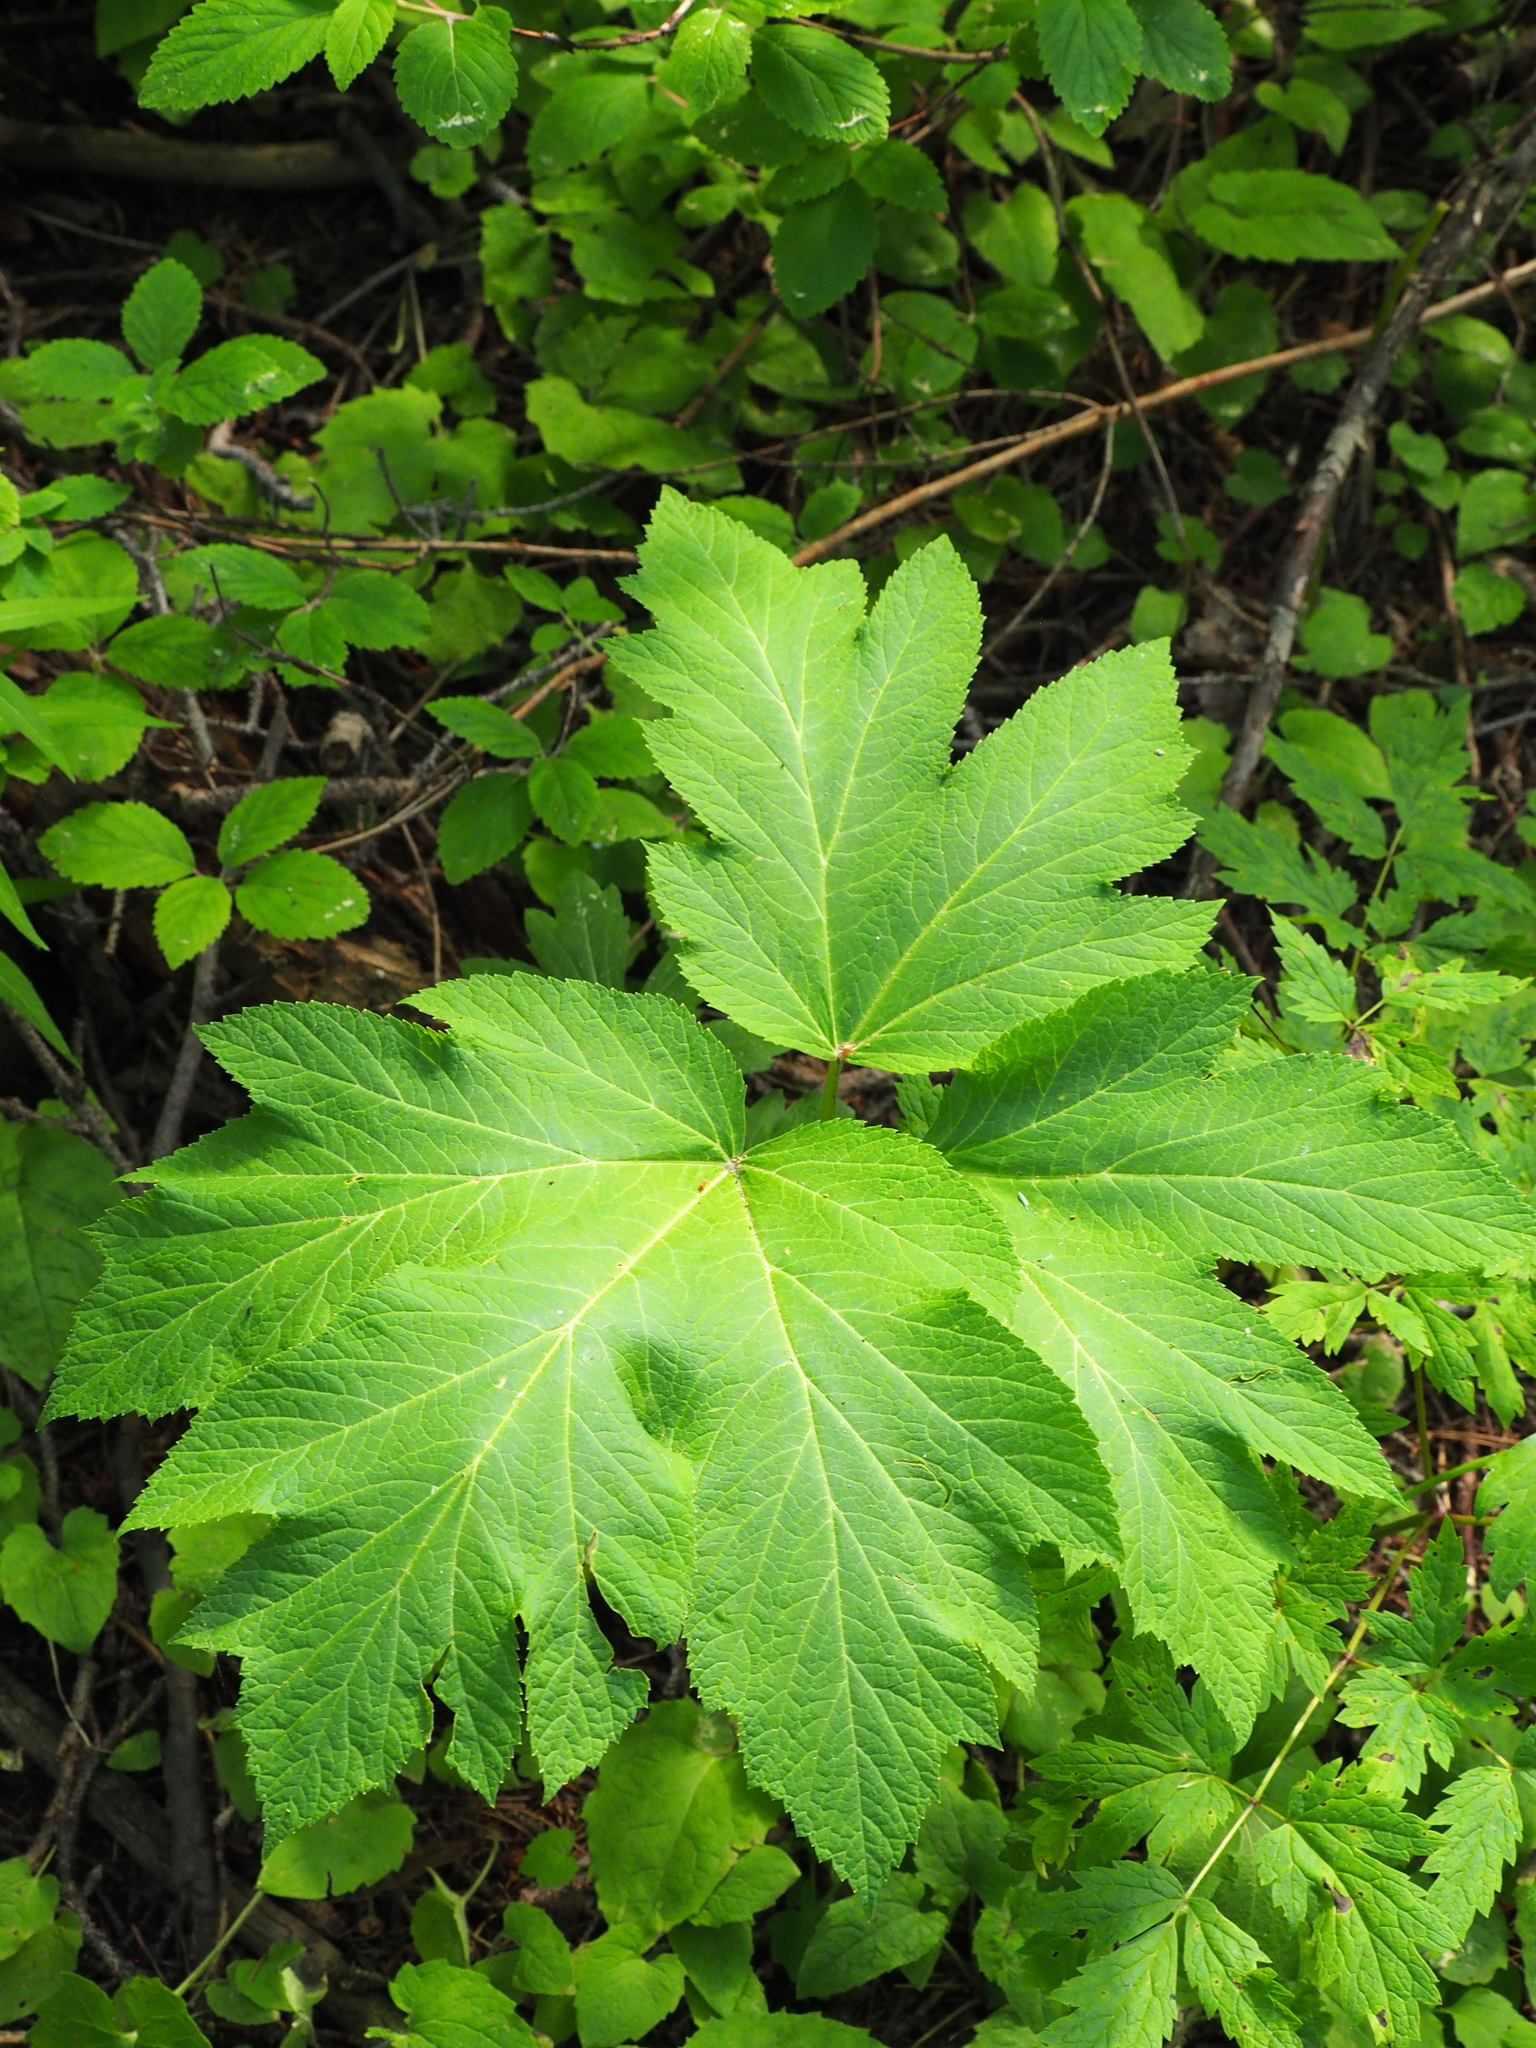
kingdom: Plantae
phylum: Tracheophyta
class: Magnoliopsida
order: Apiales
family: Apiaceae
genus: Heracleum
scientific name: Heracleum maximum
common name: American cow parsnip
